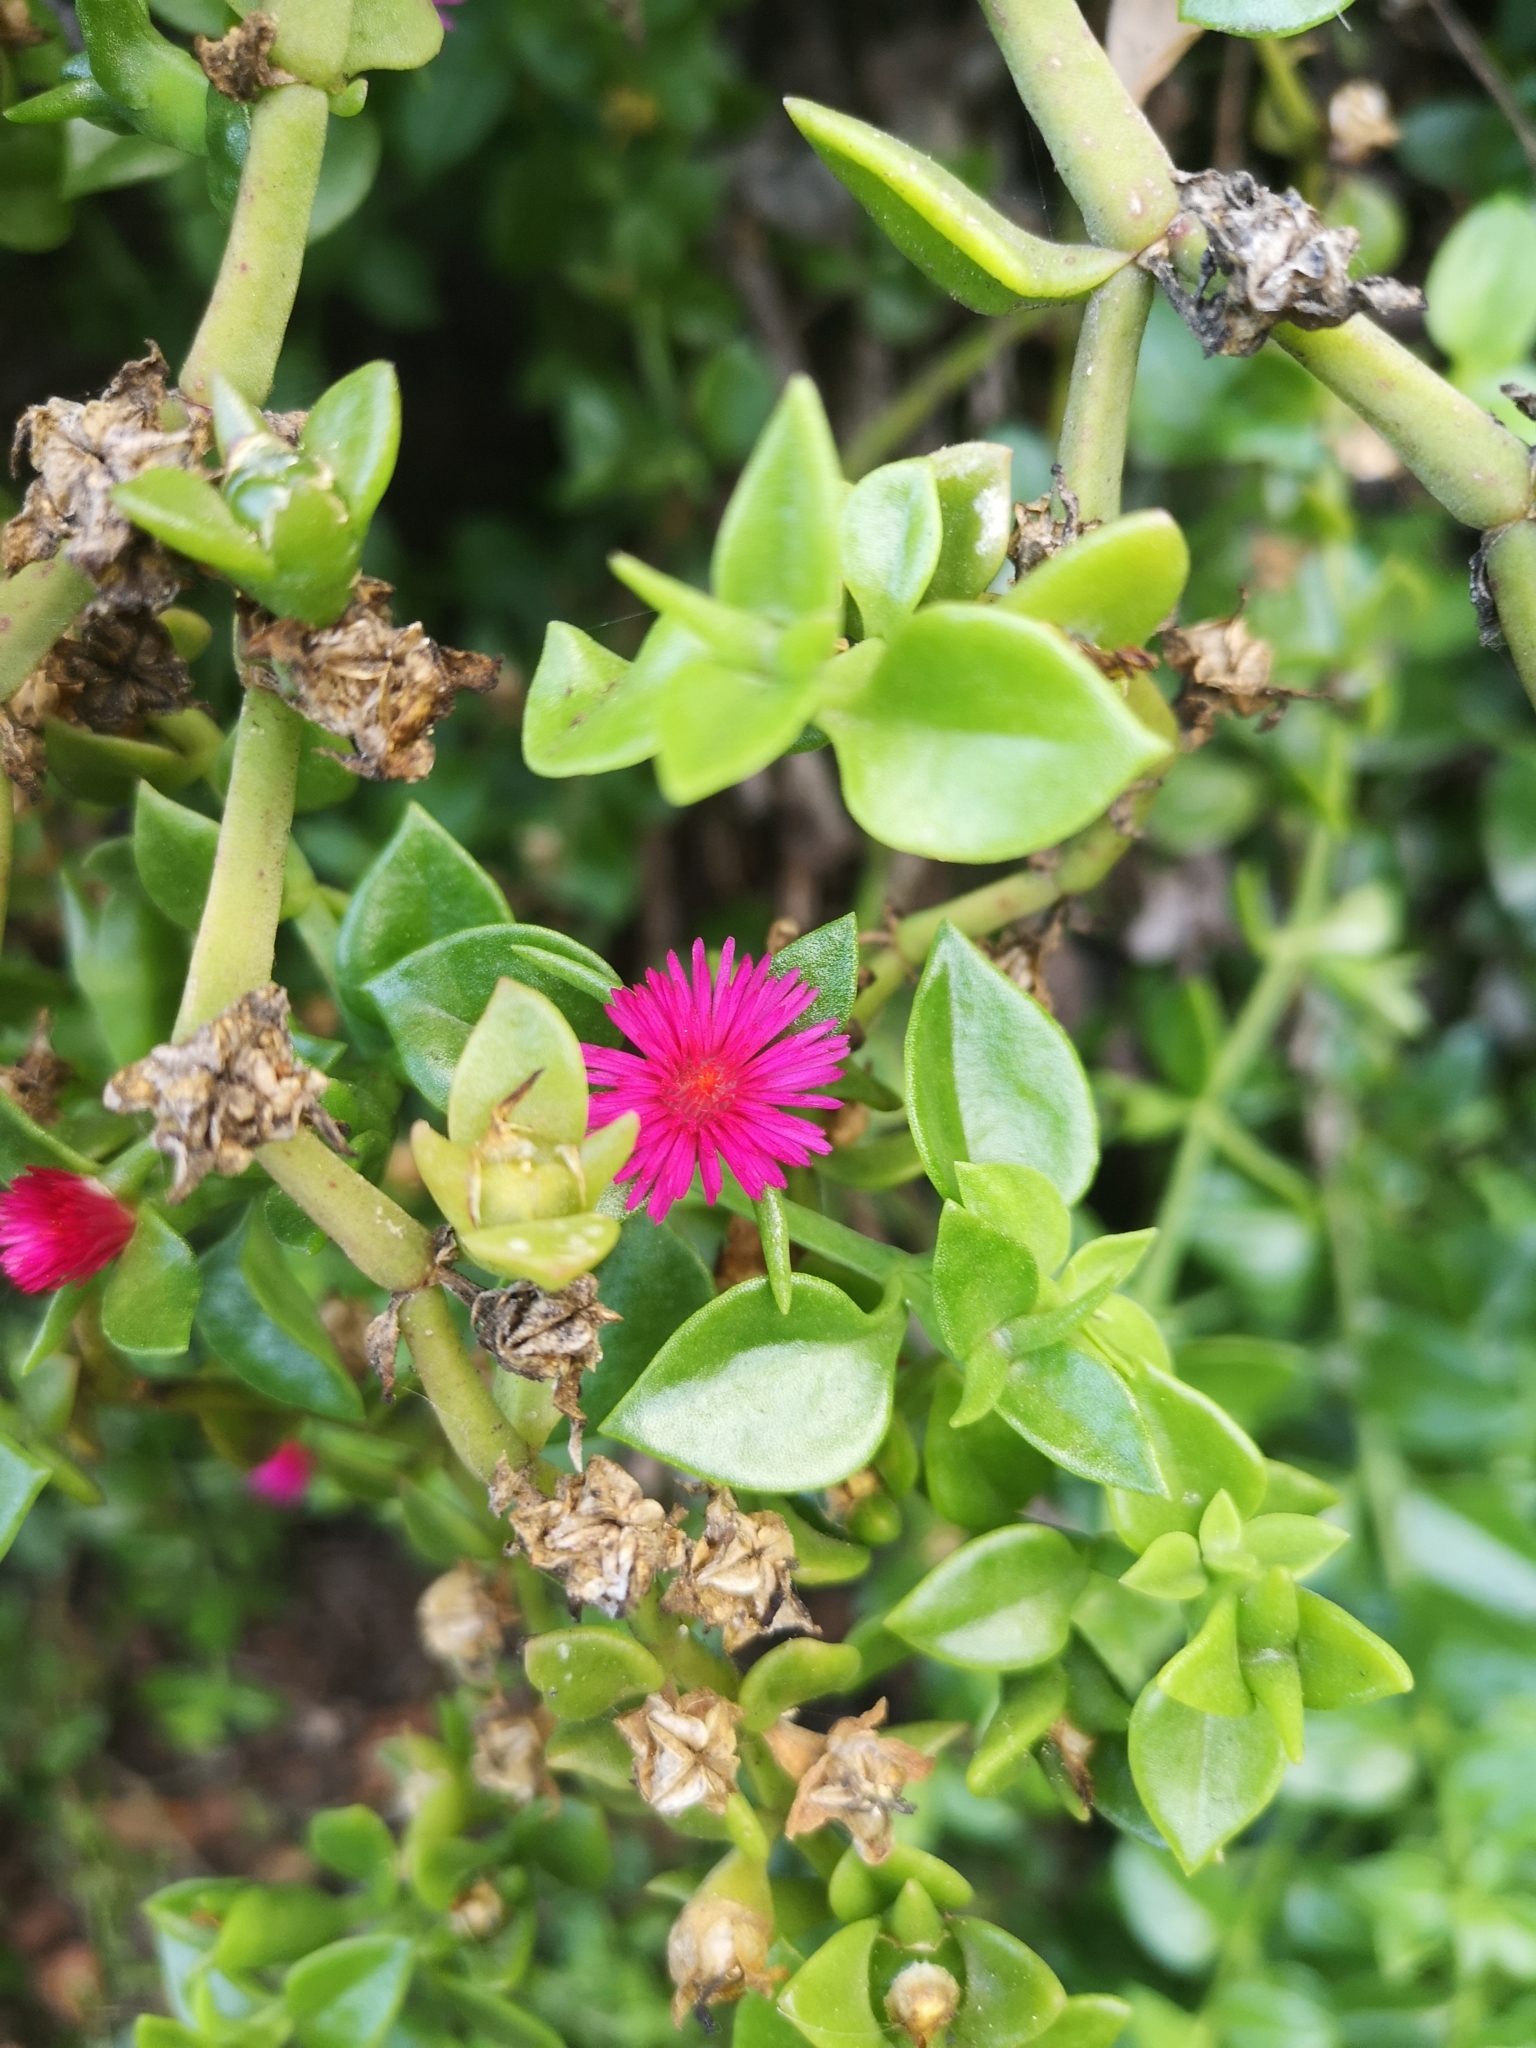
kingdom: Plantae
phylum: Tracheophyta
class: Magnoliopsida
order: Caryophyllales
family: Aizoaceae
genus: Mesembryanthemum
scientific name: Mesembryanthemum cordifolium
